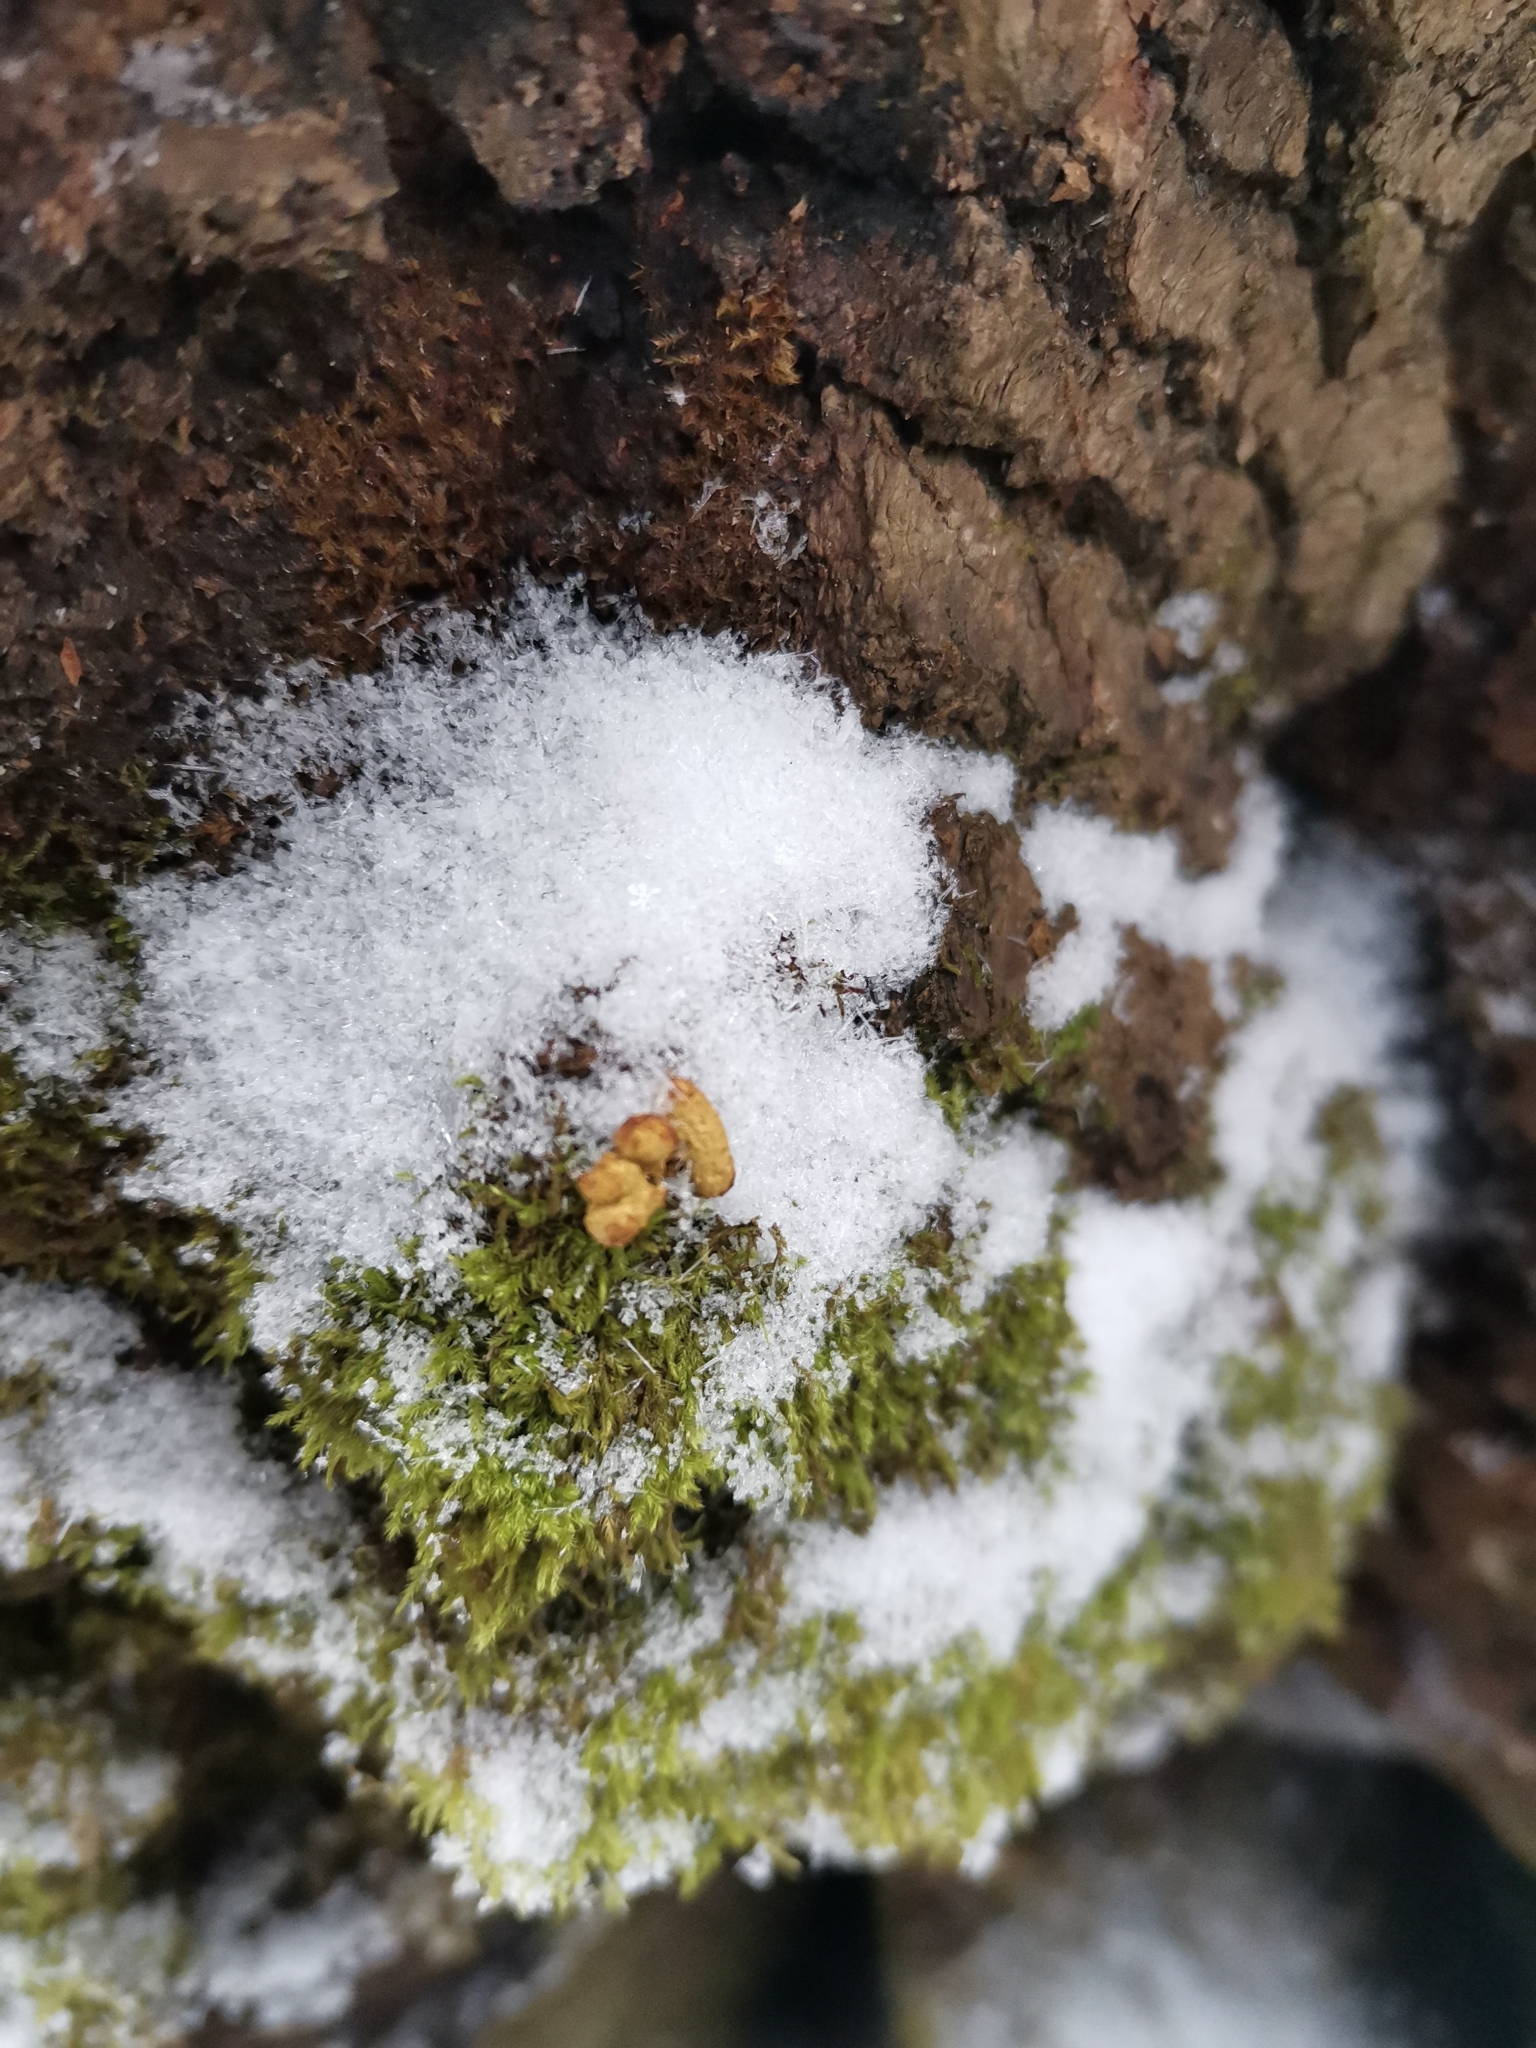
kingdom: Animalia
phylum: Chordata
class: Mammalia
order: Rodentia
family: Sciuridae
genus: Pteromys
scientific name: Pteromys volans
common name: Siberian flying squirrel
